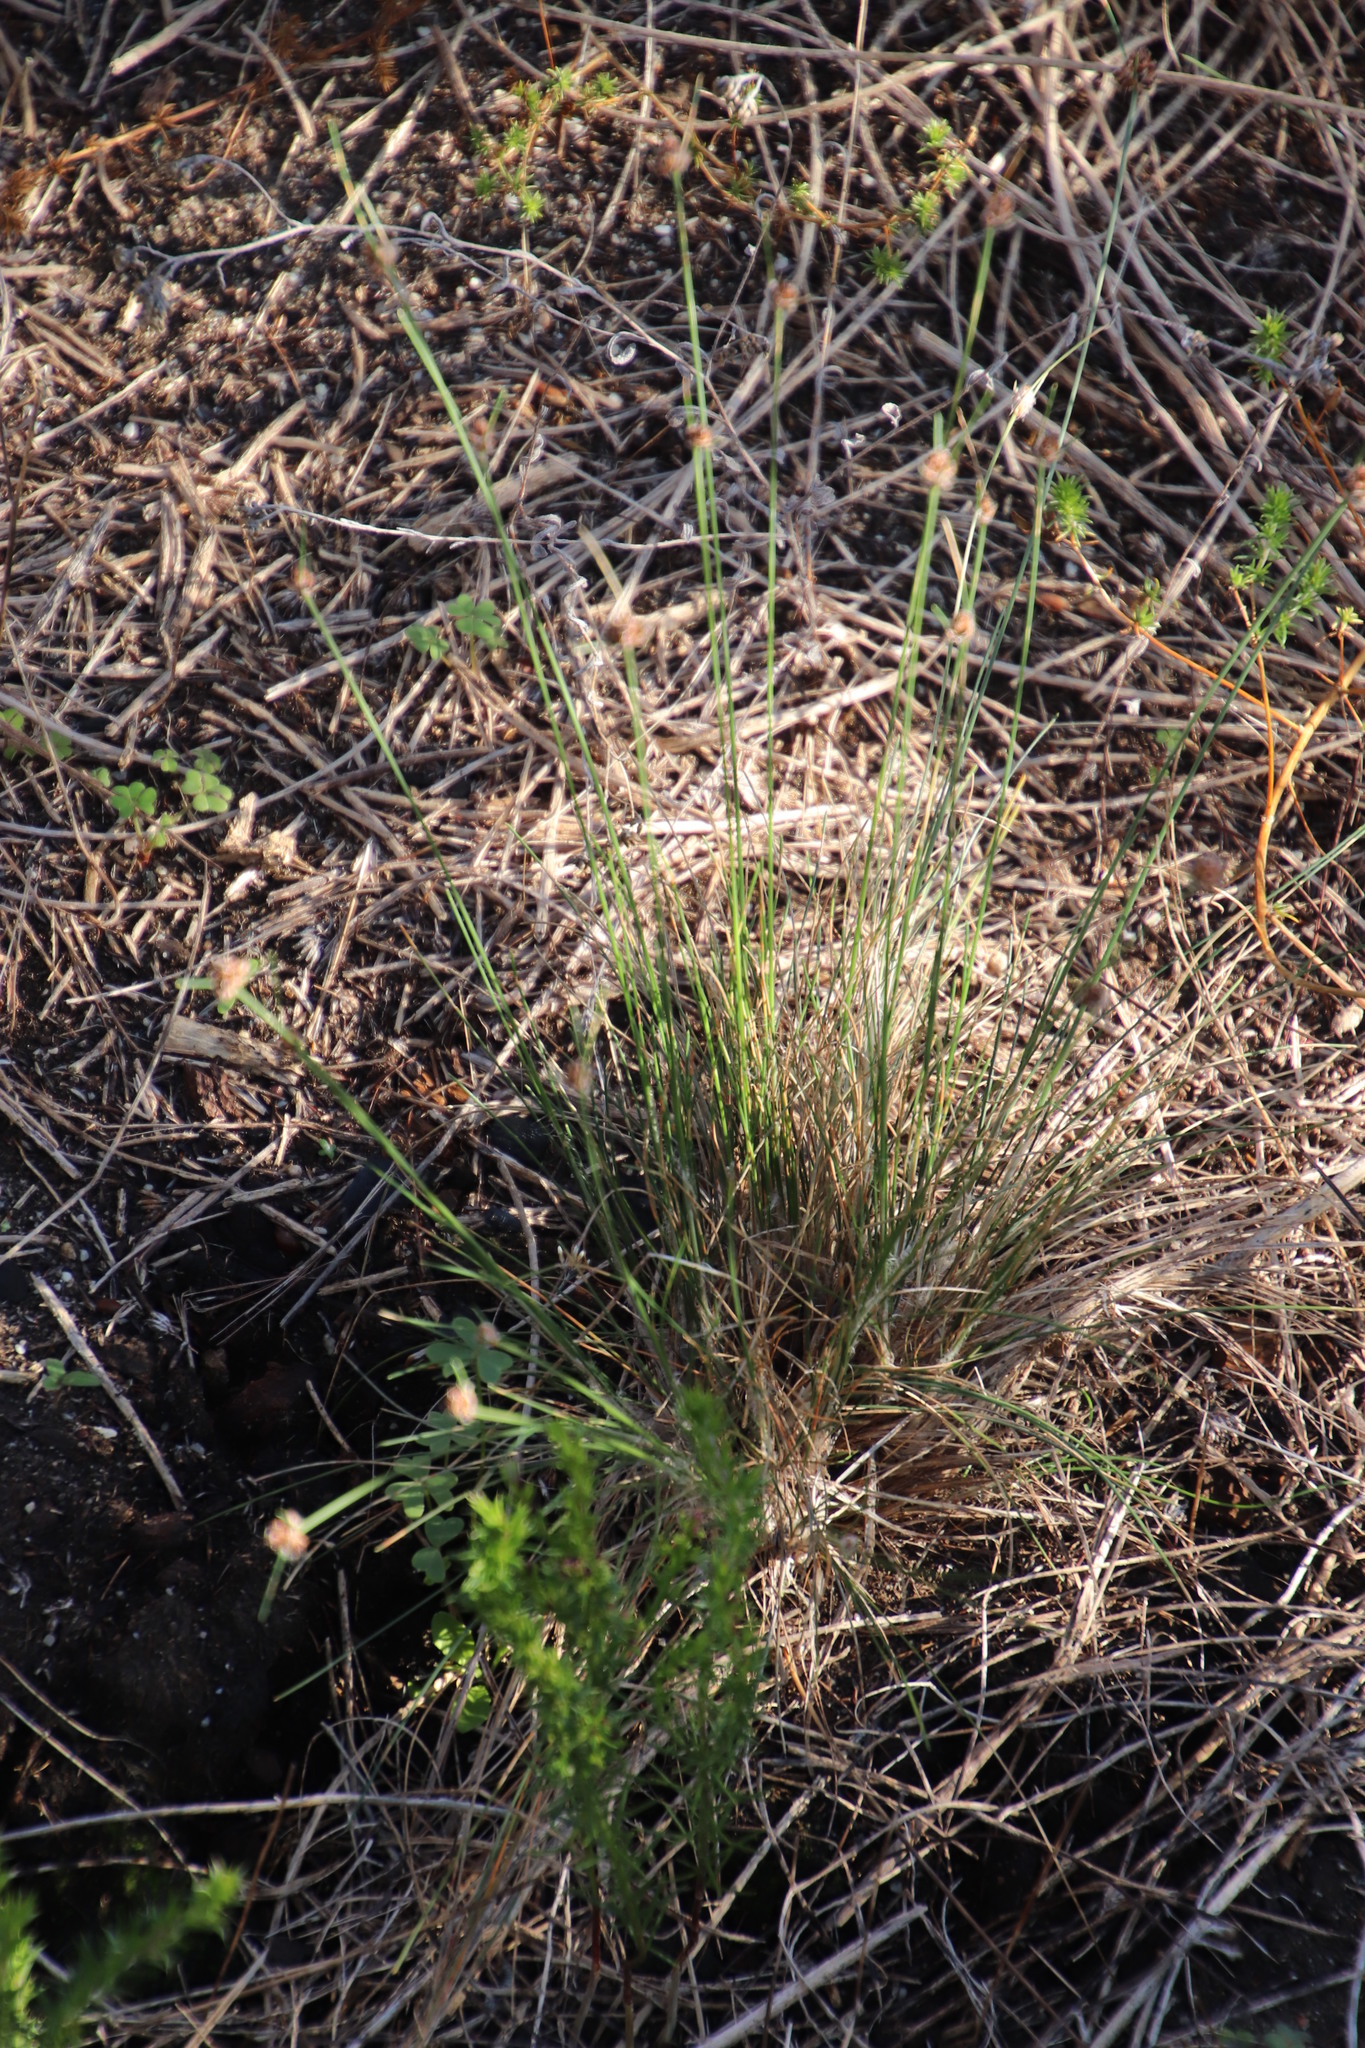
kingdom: Plantae
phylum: Tracheophyta
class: Liliopsida
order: Poales
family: Cyperaceae
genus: Ficinia
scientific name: Ficinia paradoxa
